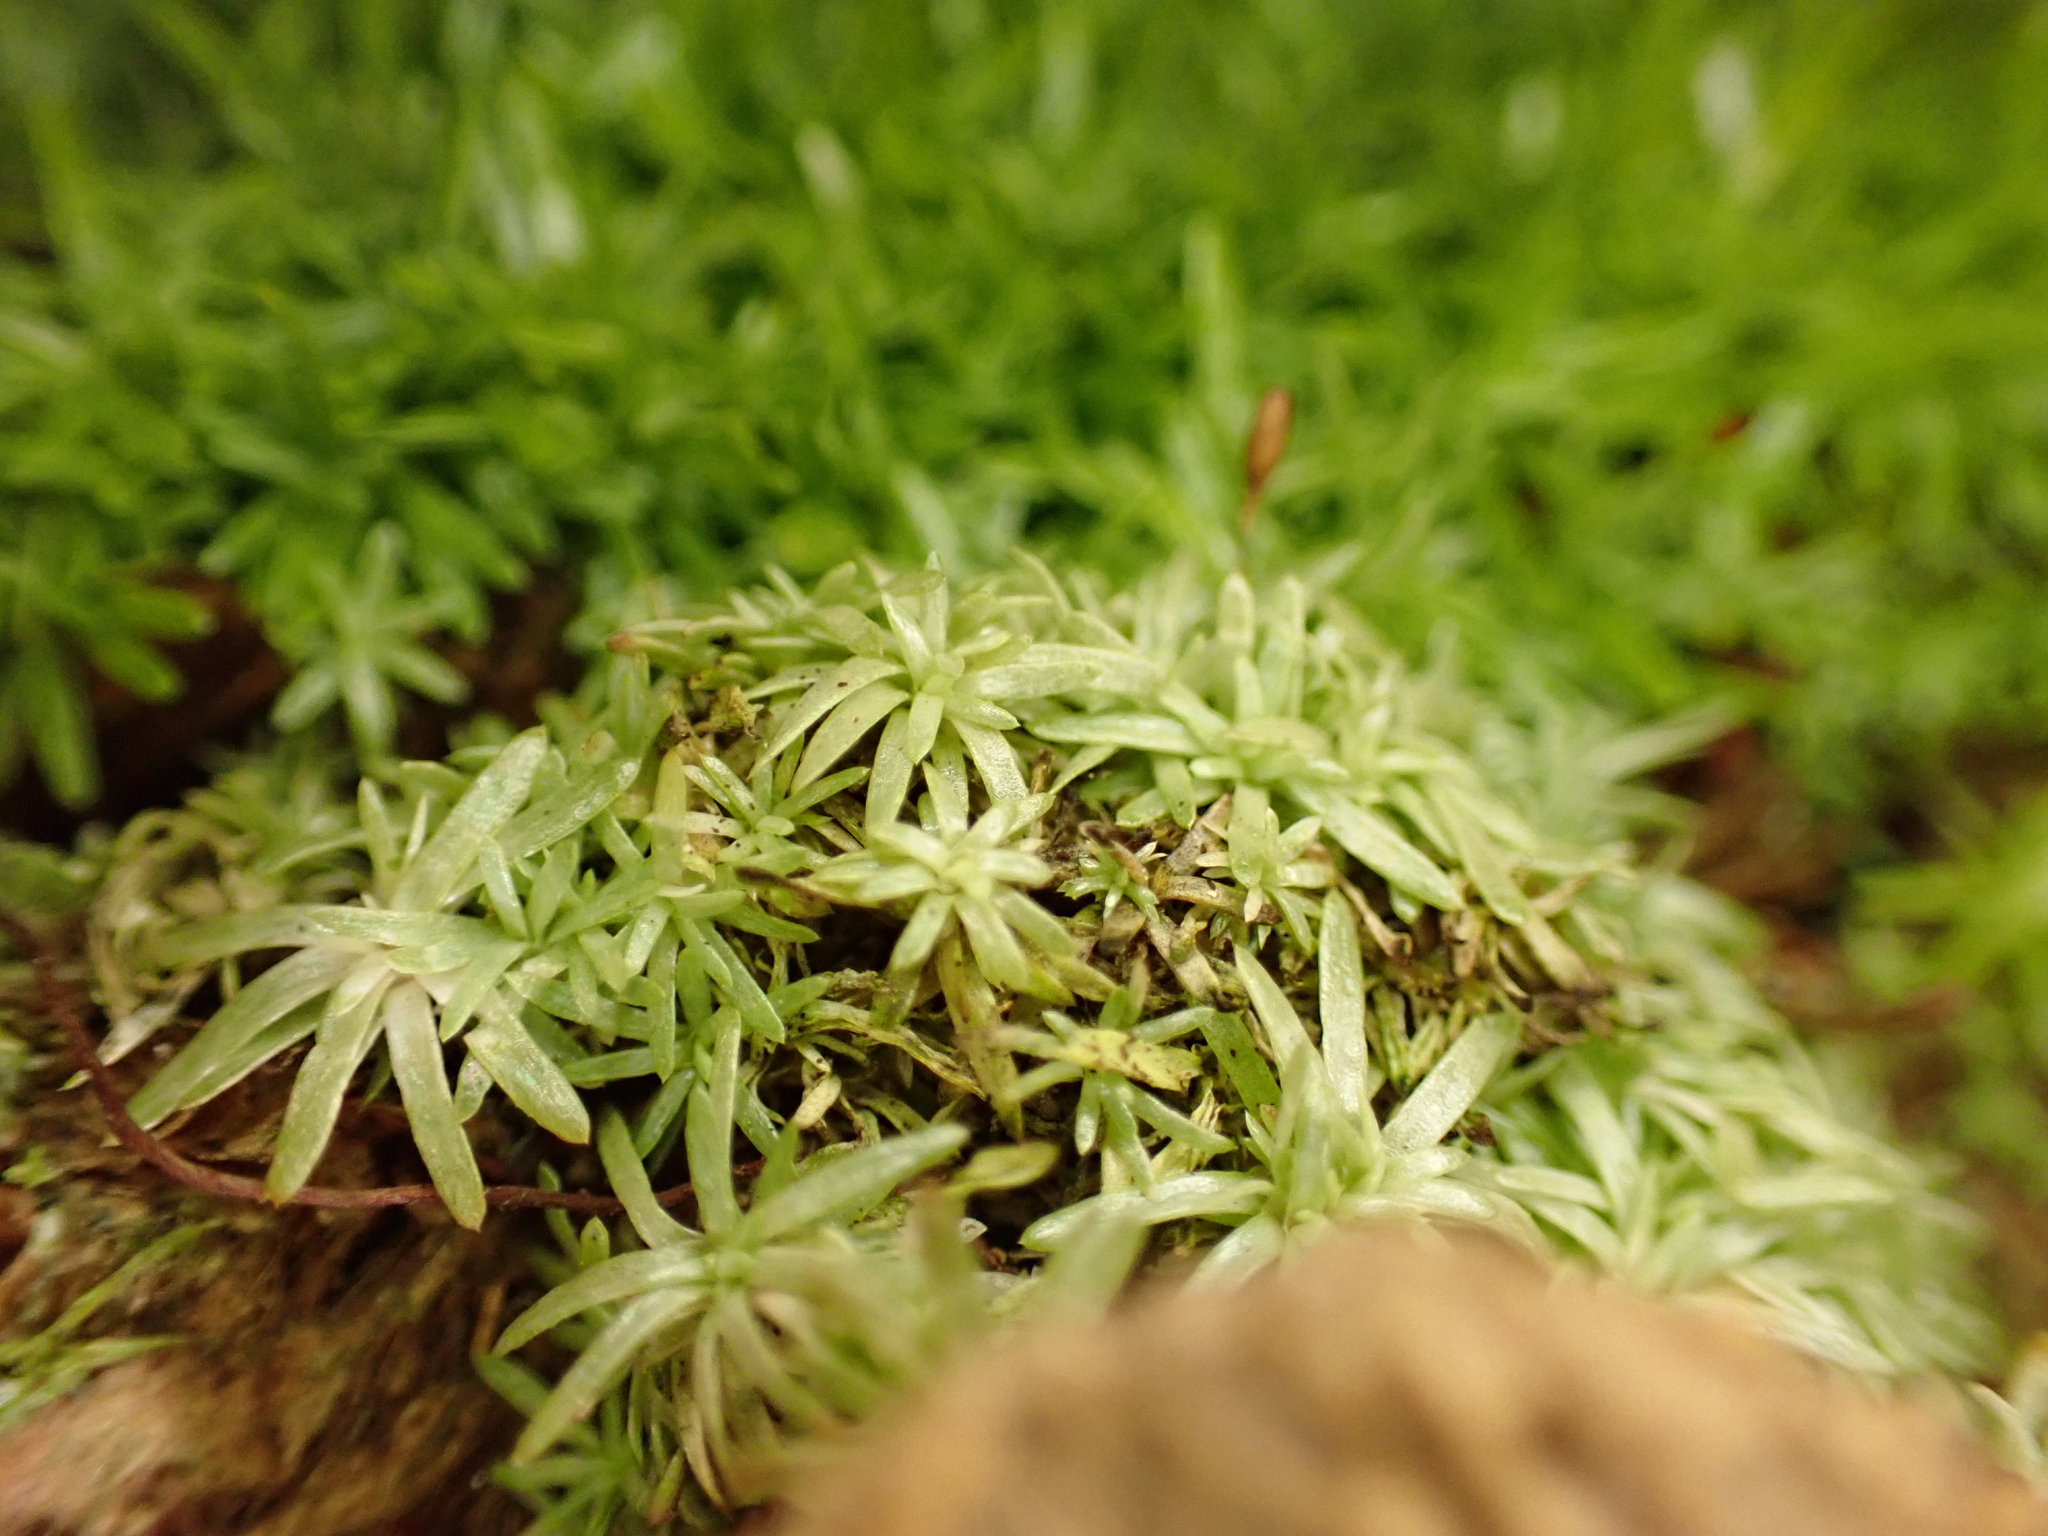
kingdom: Plantae
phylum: Bryophyta
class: Bryopsida
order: Dicranales
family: Octoblepharaceae
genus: Octoblepharum
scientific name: Octoblepharum albidum
